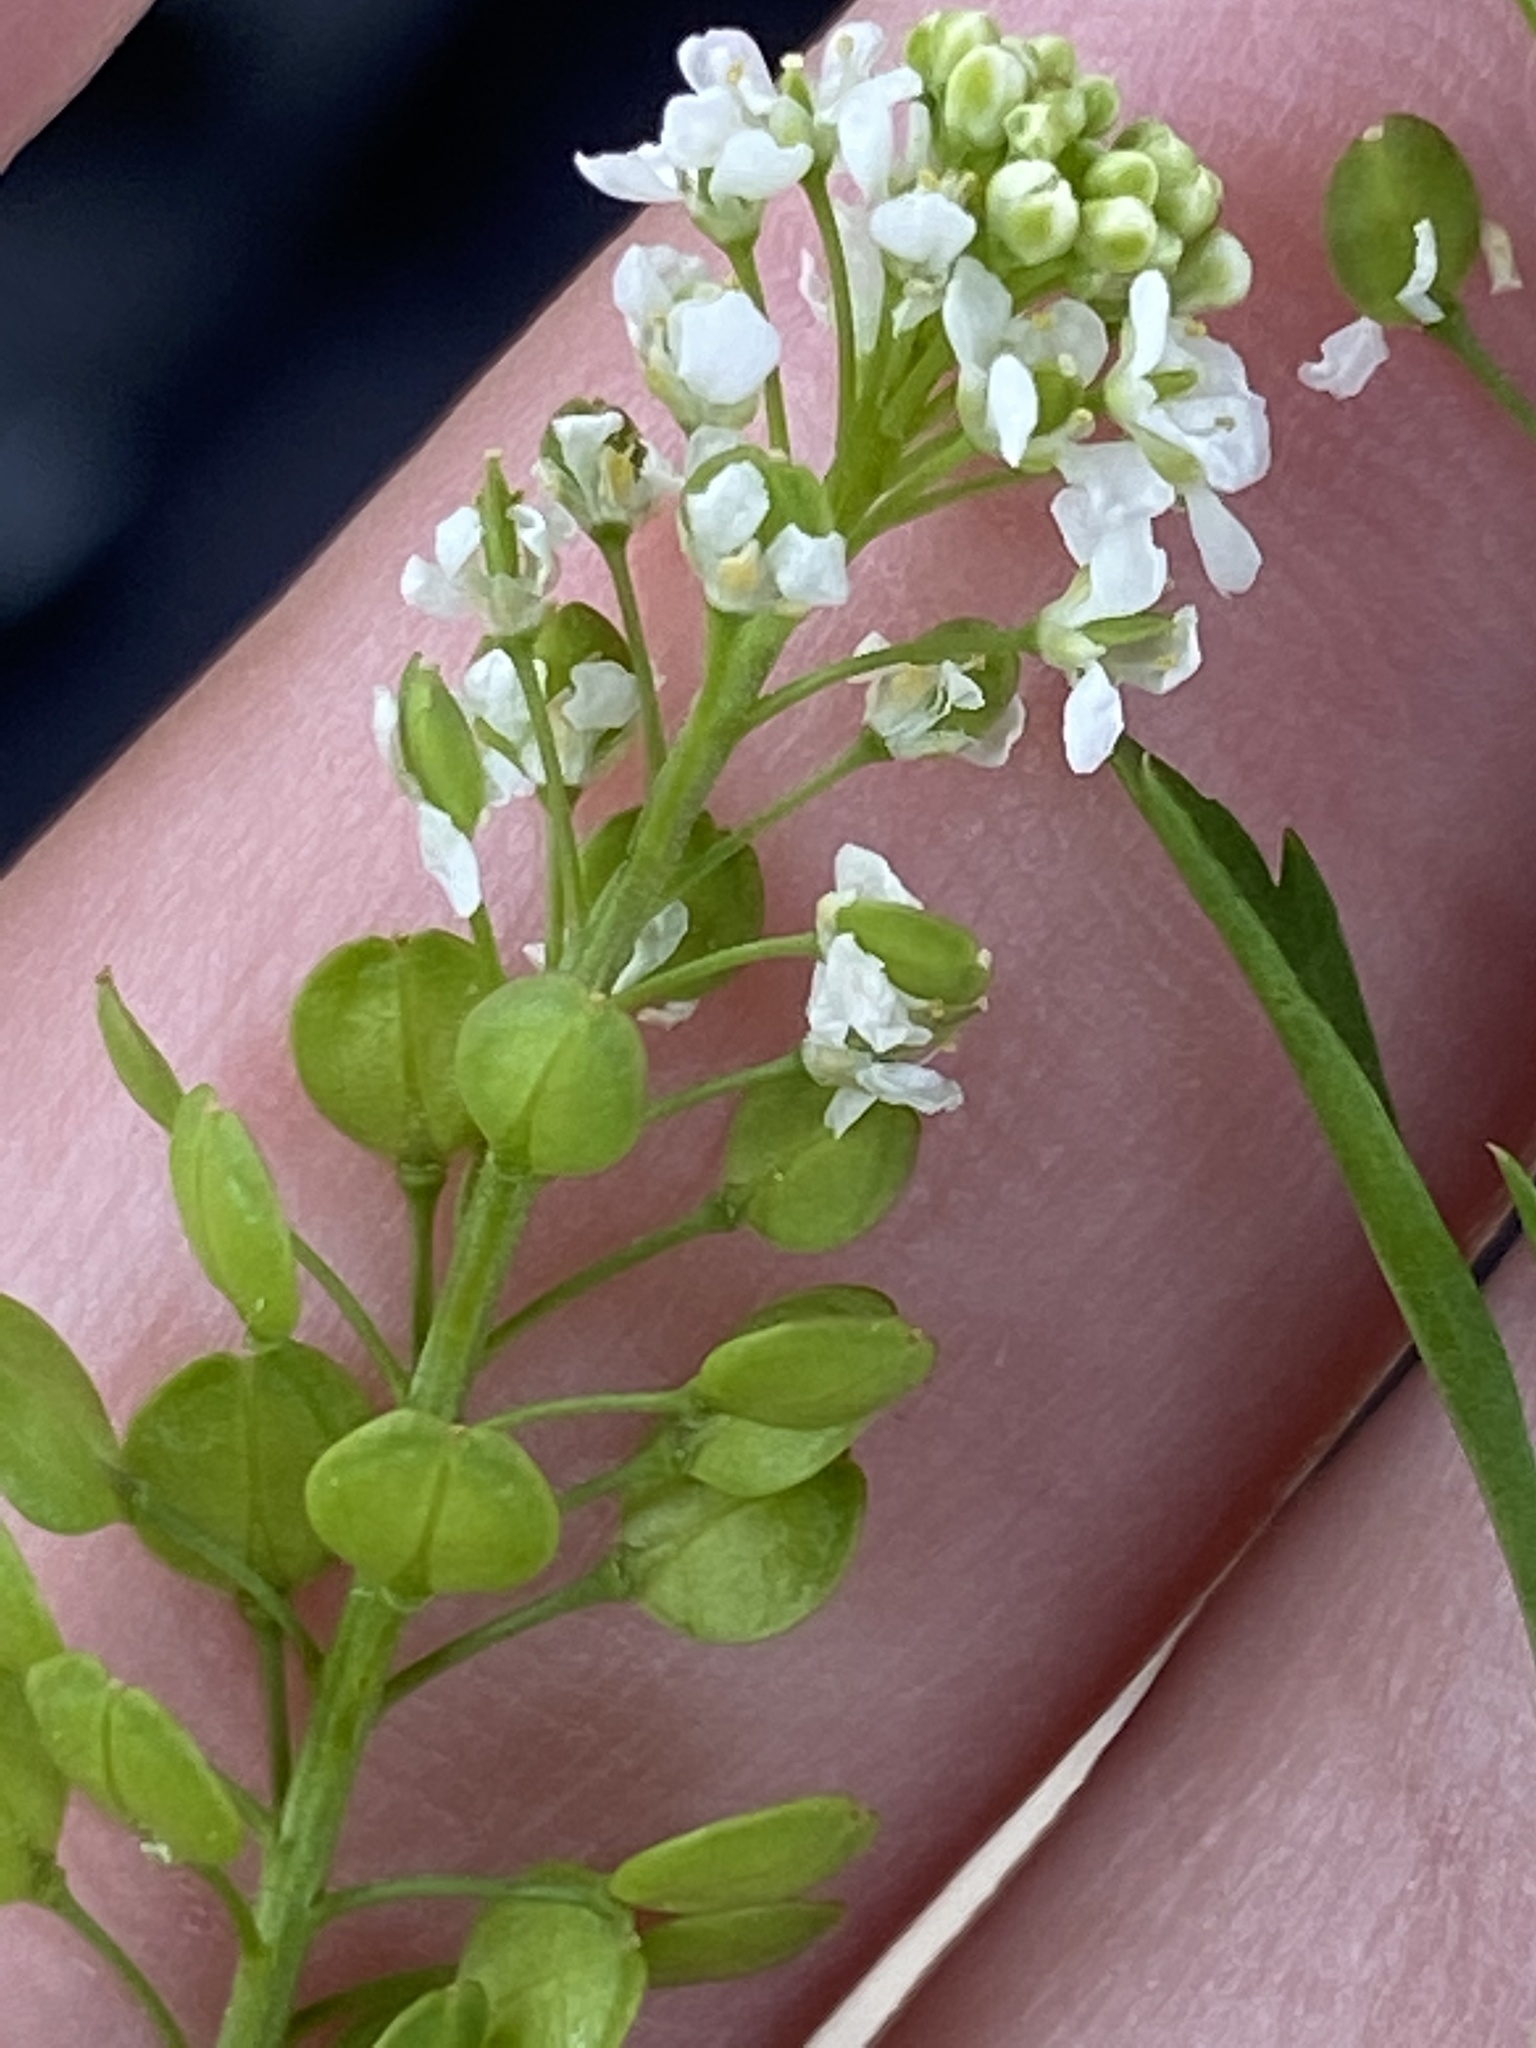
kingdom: Plantae
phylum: Tracheophyta
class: Magnoliopsida
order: Brassicales
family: Brassicaceae
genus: Lepidium
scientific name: Lepidium virginicum
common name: Least pepperwort
